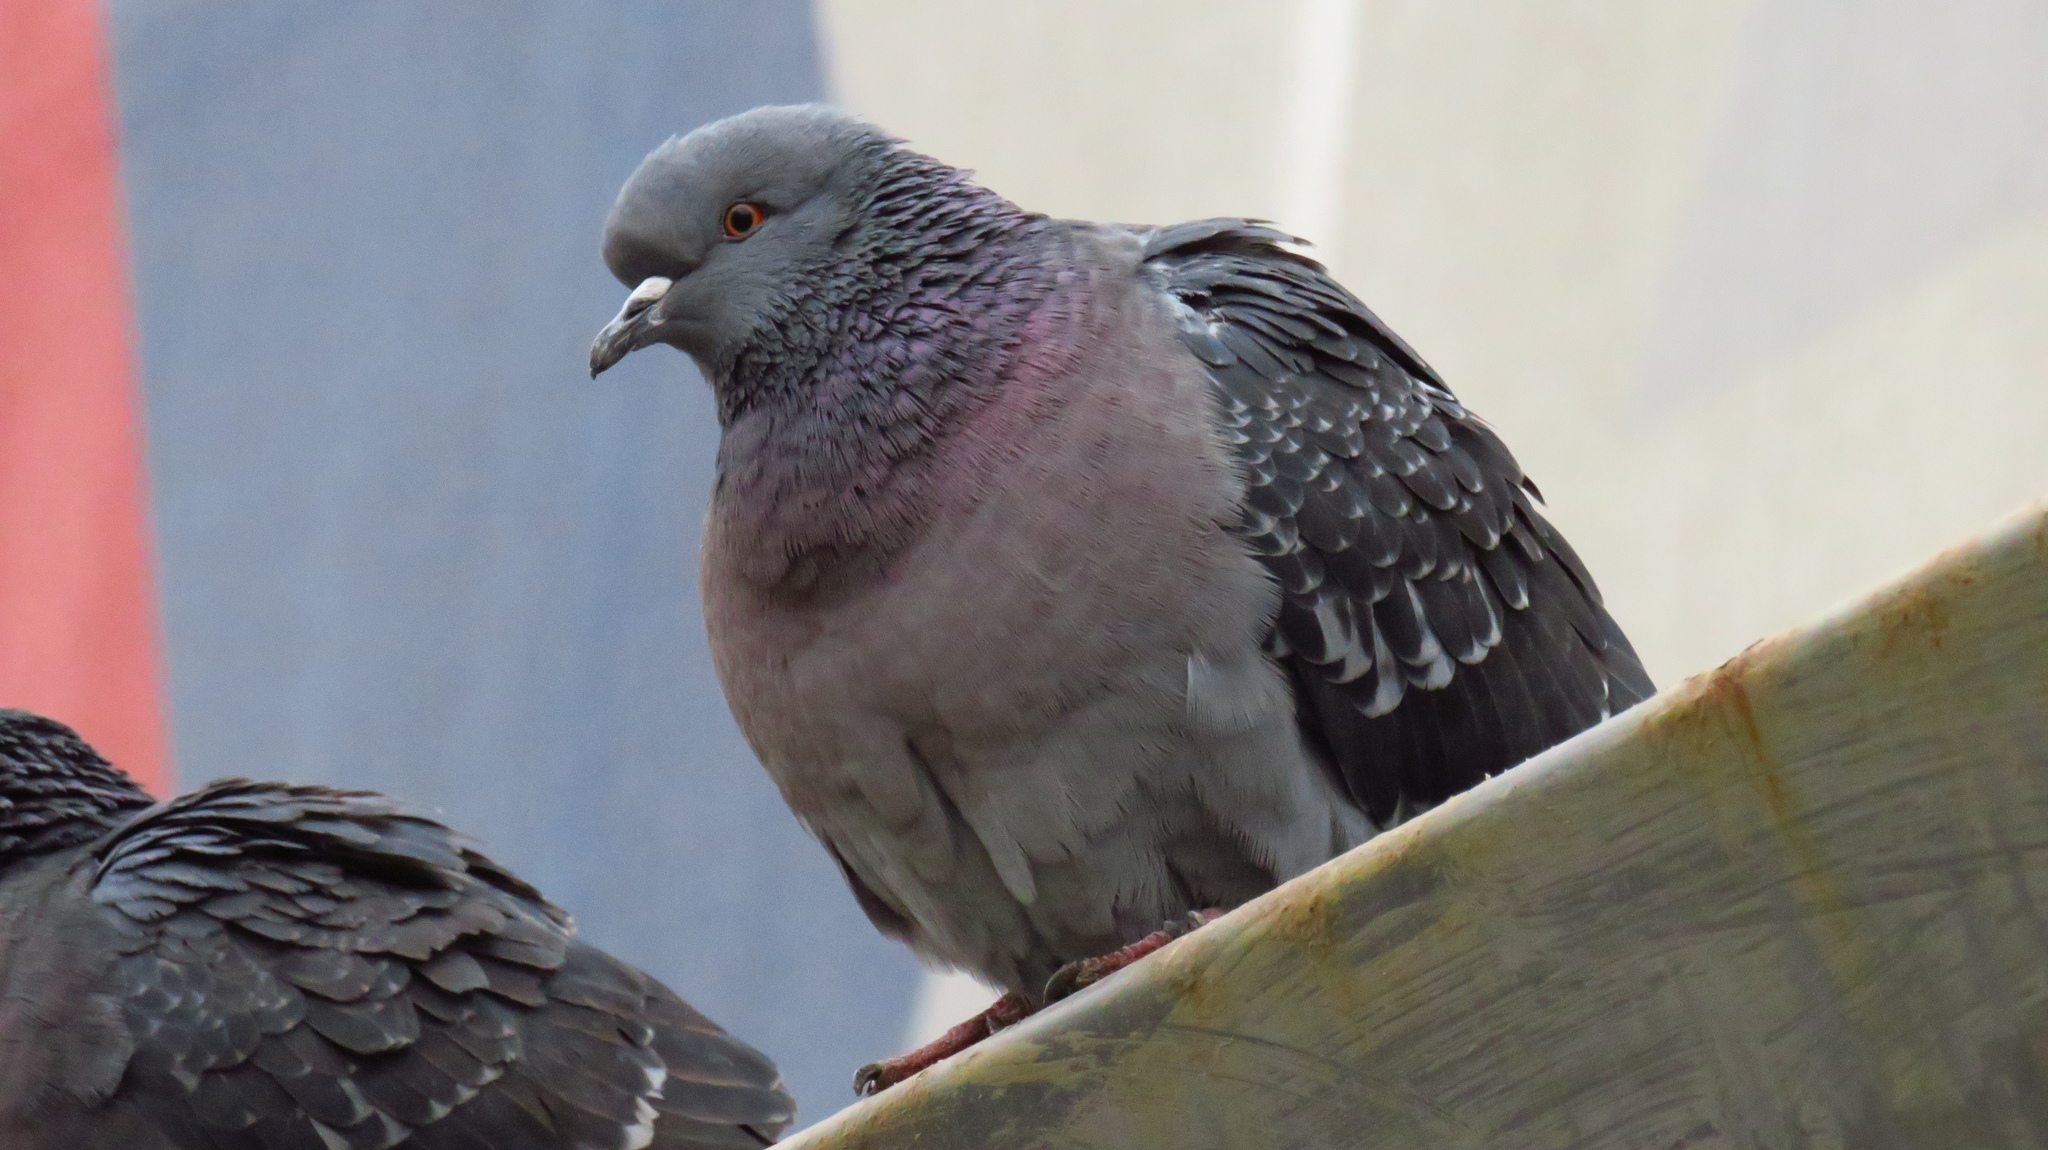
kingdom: Animalia
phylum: Chordata
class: Aves
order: Columbiformes
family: Columbidae
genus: Columba
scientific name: Columba livia
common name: Rock pigeon
